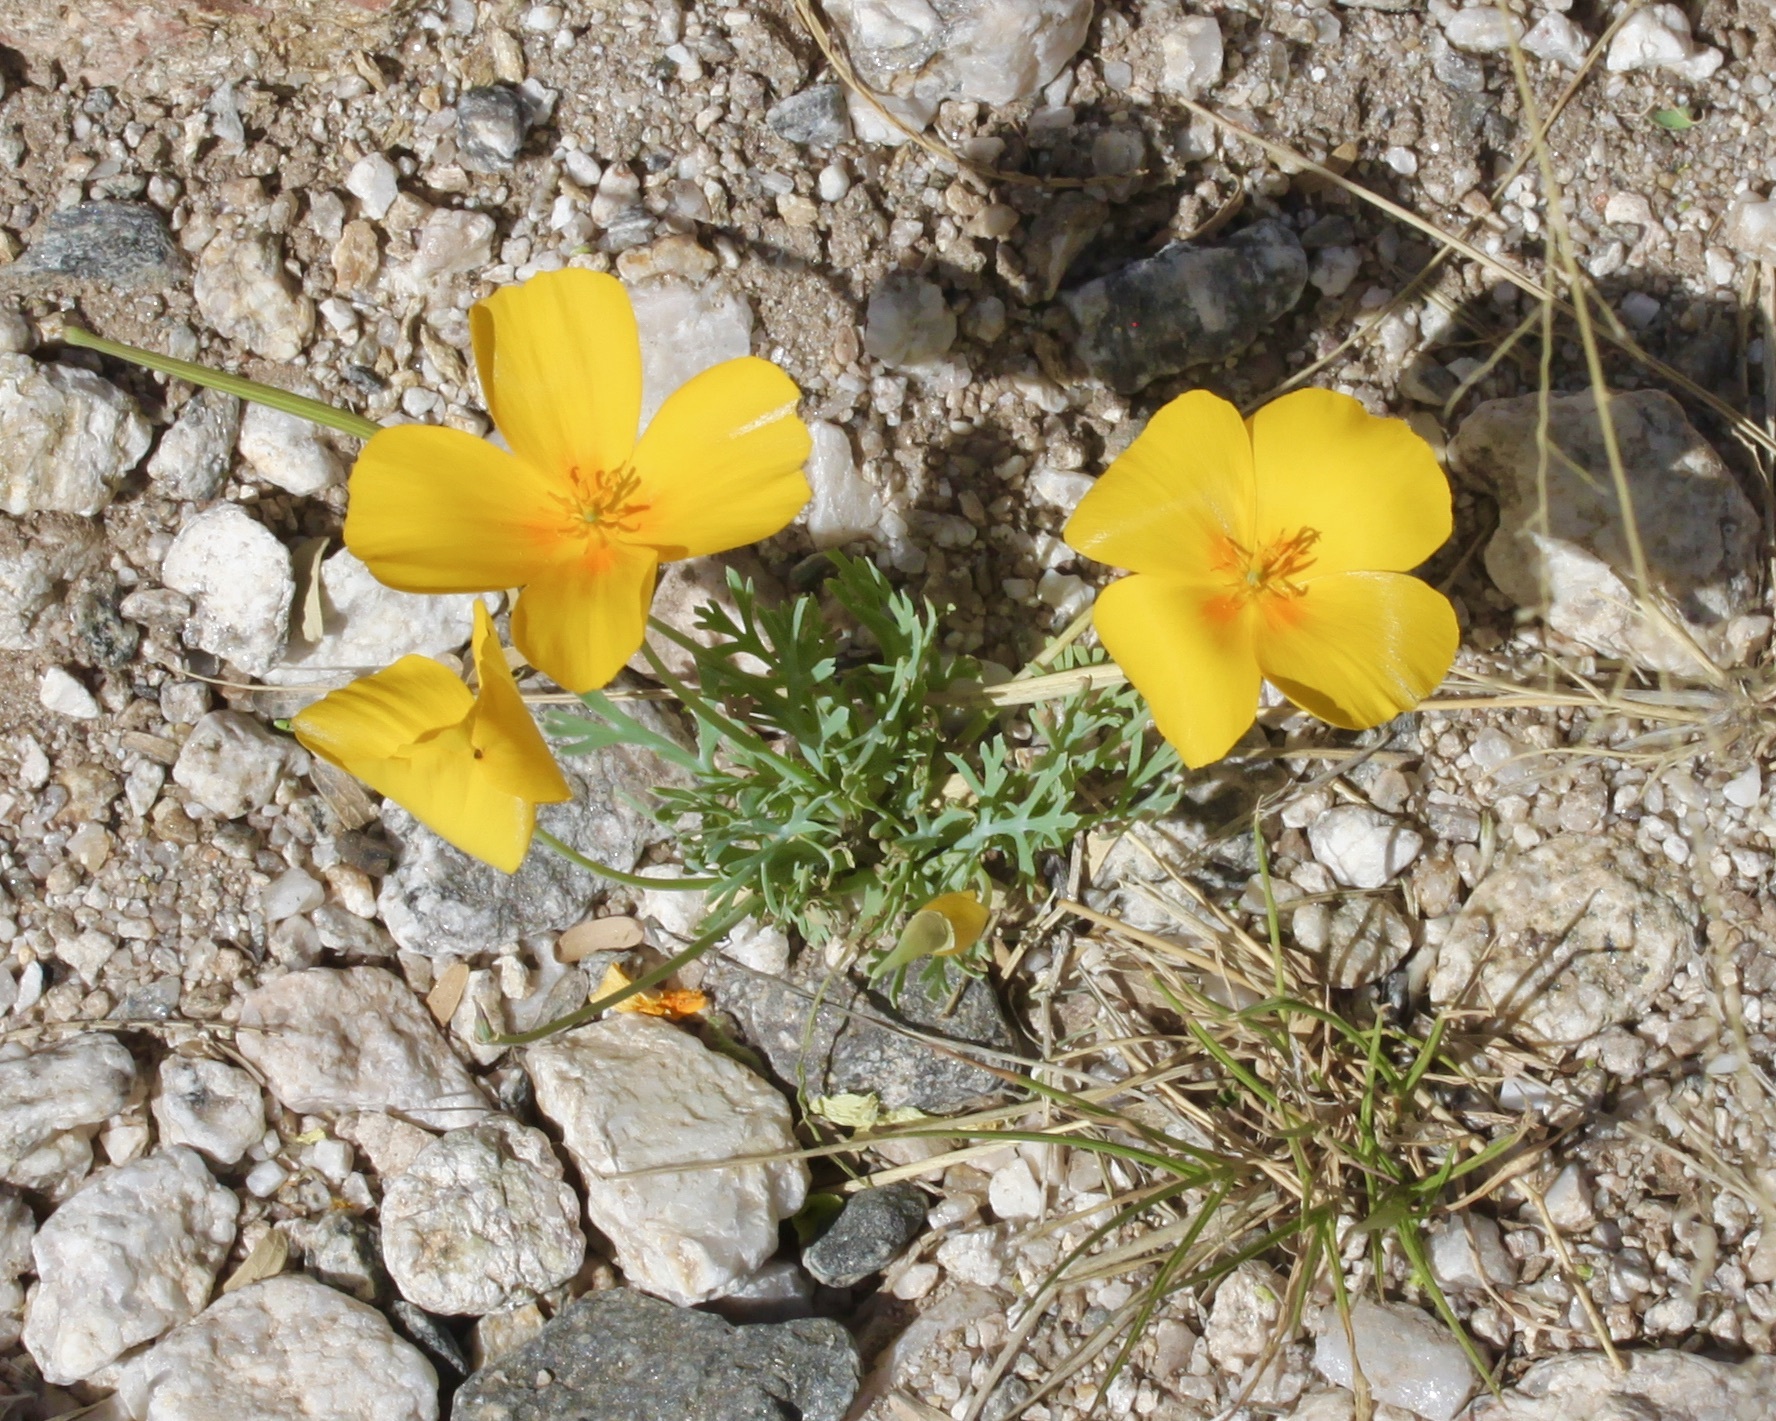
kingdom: Plantae
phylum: Tracheophyta
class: Magnoliopsida
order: Ranunculales
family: Papaveraceae
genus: Eschscholzia
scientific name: Eschscholzia californica
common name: California poppy
